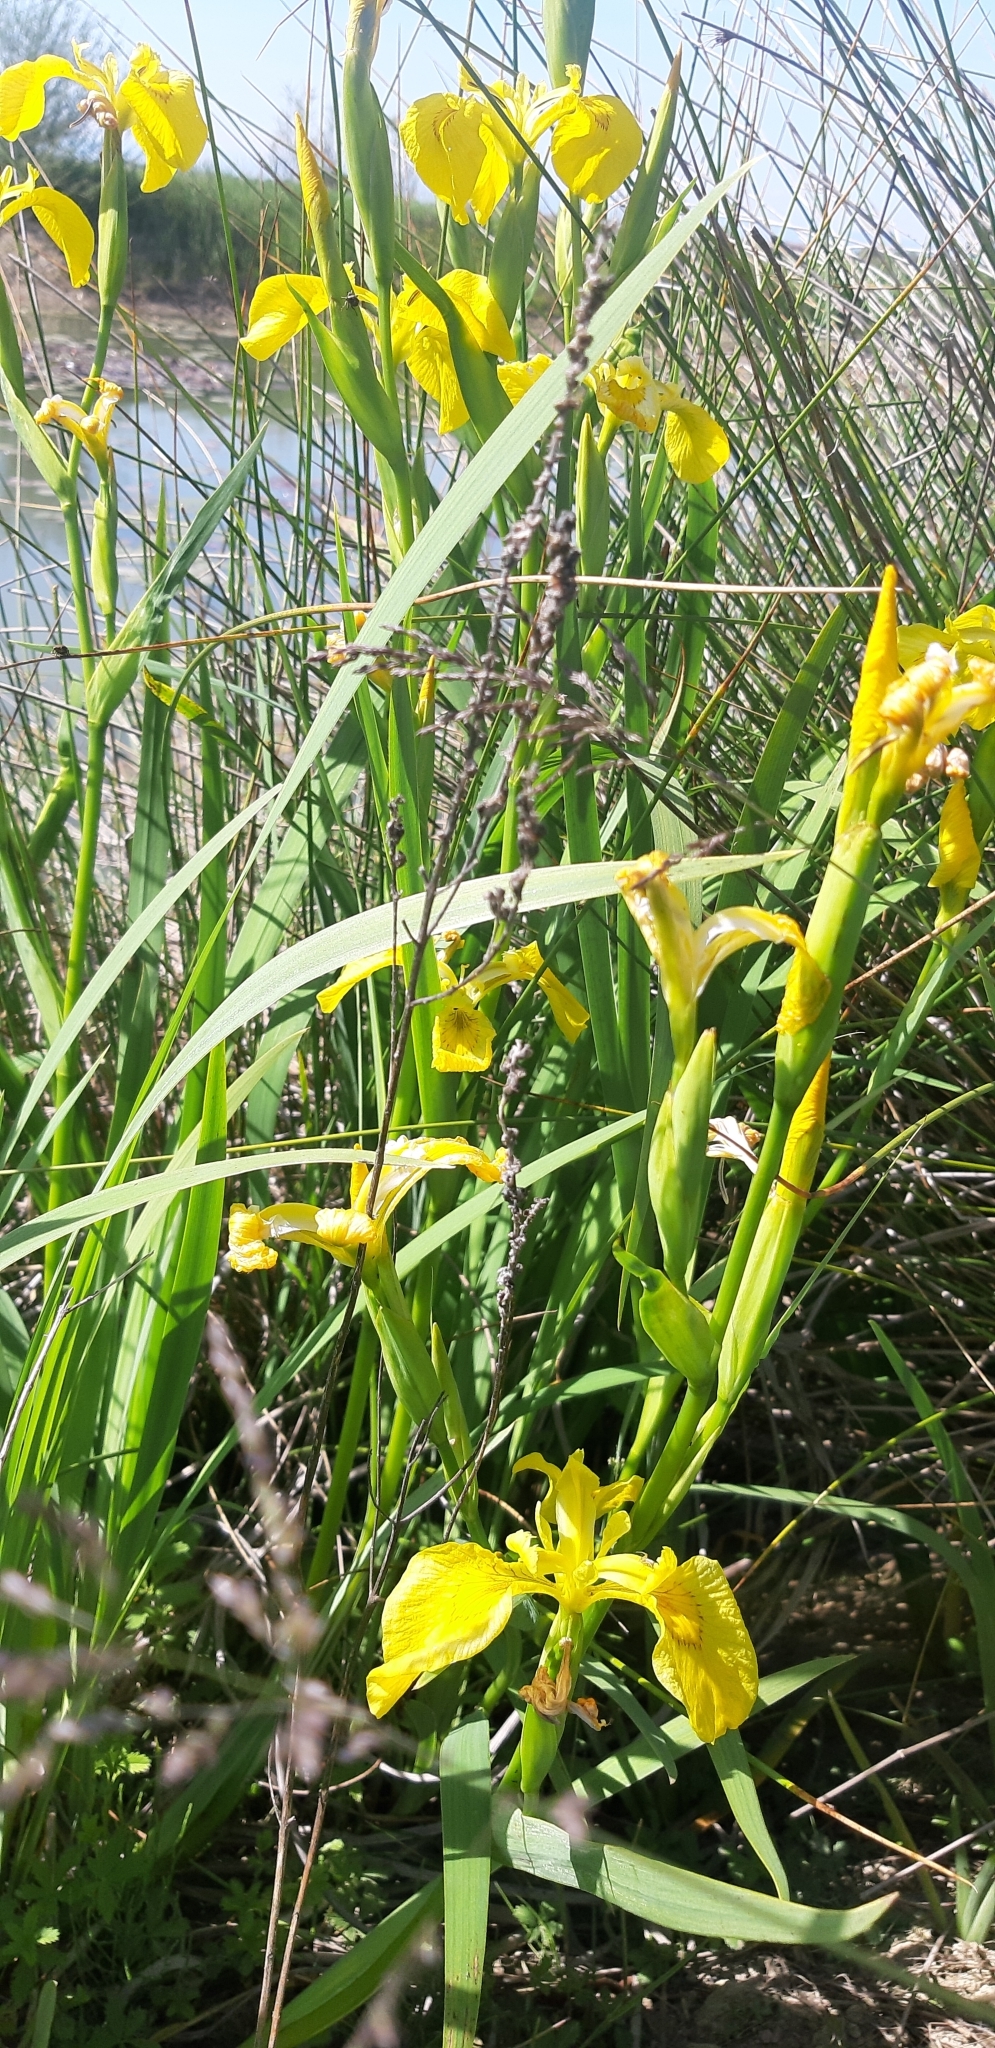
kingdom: Plantae
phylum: Tracheophyta
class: Liliopsida
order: Asparagales
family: Iridaceae
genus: Iris
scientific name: Iris pseudacorus
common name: Yellow flag
